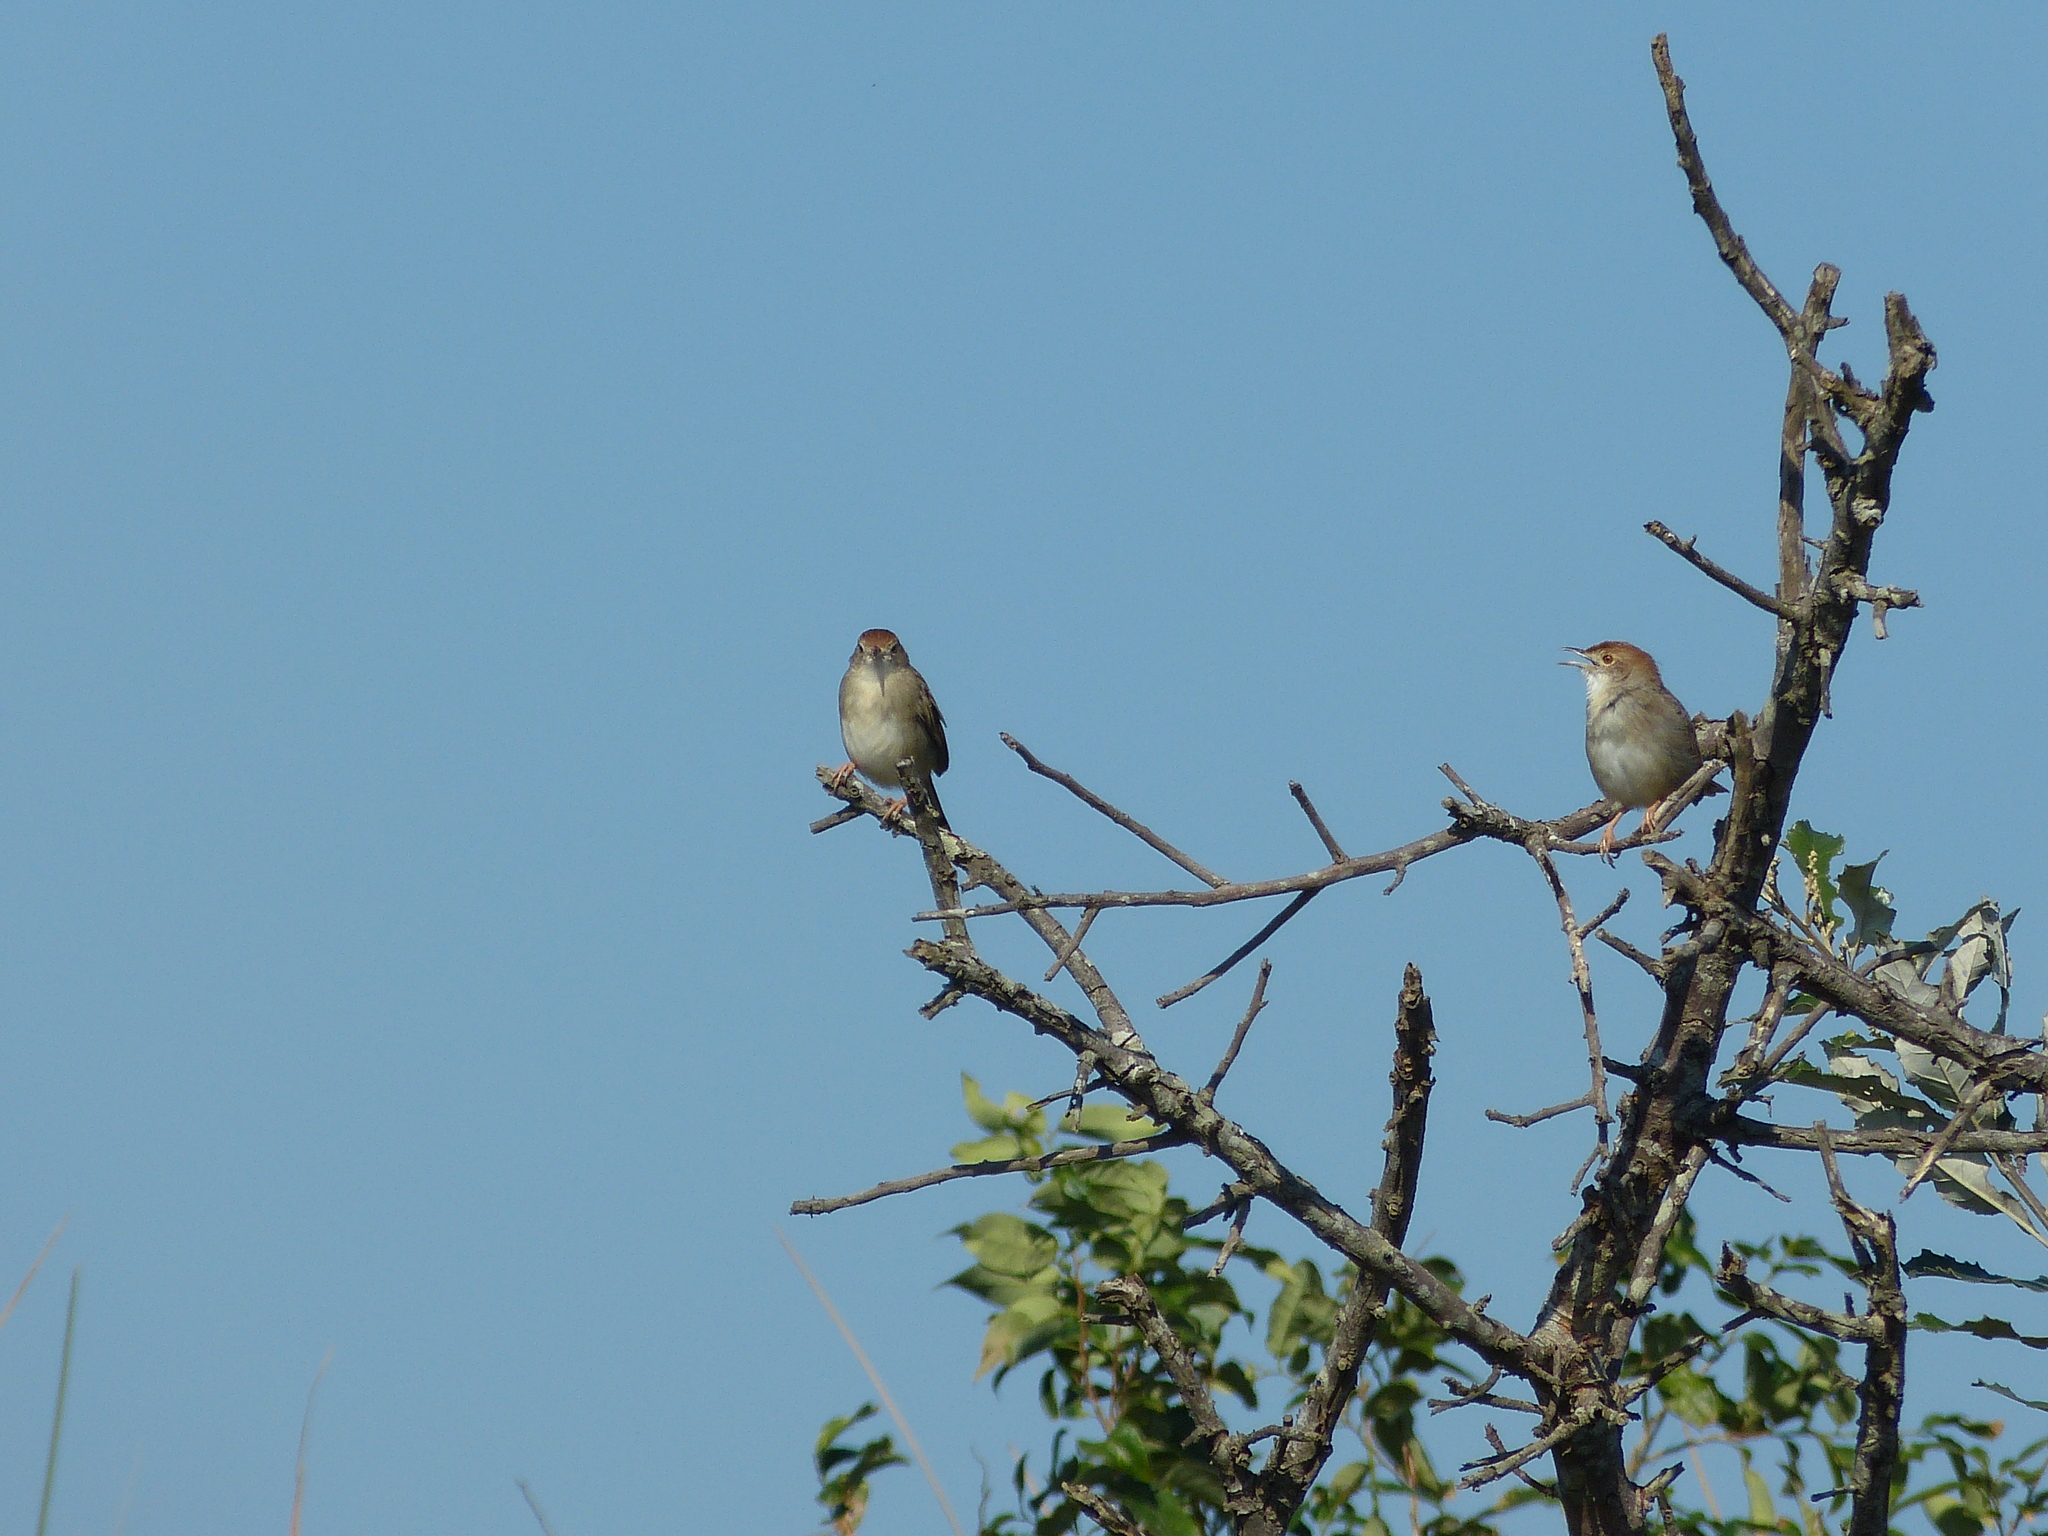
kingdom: Animalia
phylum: Chordata
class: Aves
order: Passeriformes
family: Cisticolidae
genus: Cisticola
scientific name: Cisticola fulvicapilla
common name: Neddicky
